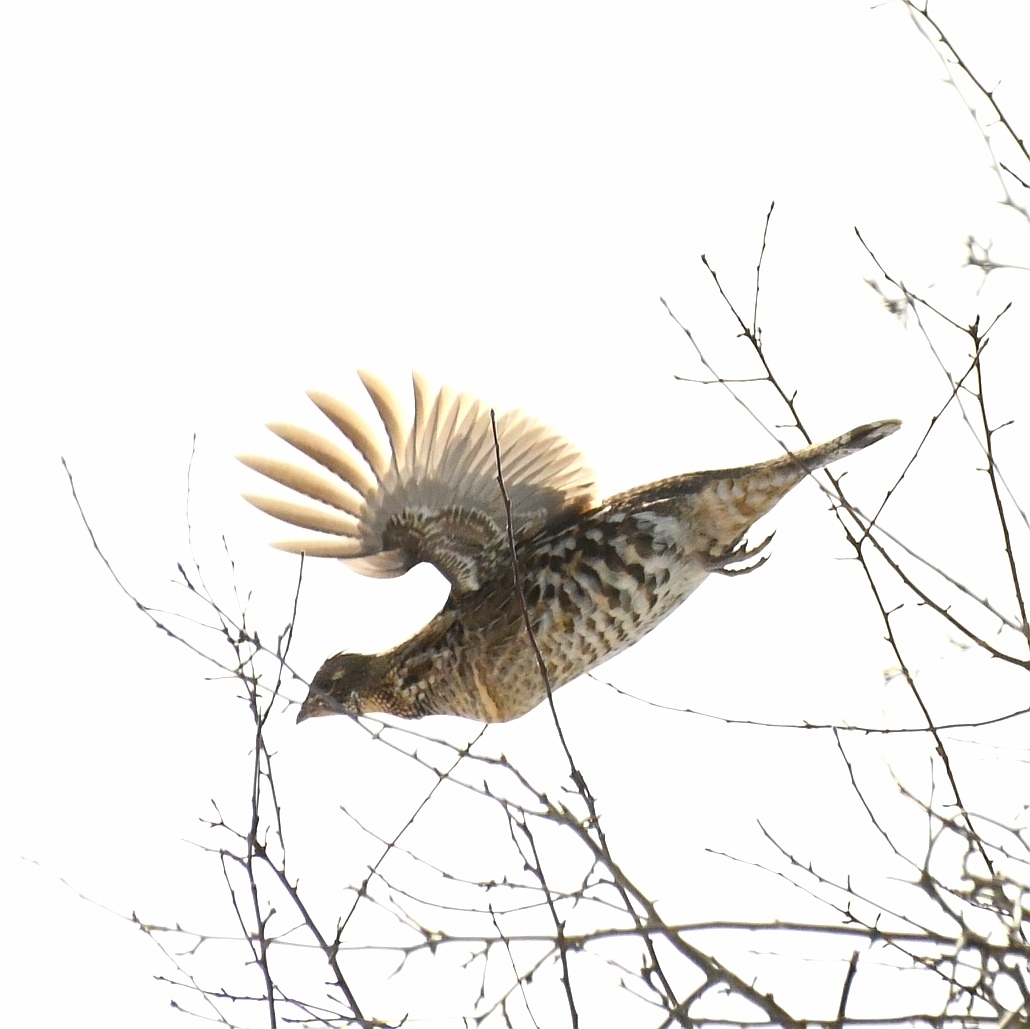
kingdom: Animalia
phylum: Chordata
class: Aves
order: Galliformes
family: Phasianidae
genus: Bonasa
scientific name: Bonasa umbellus
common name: Ruffed grouse
